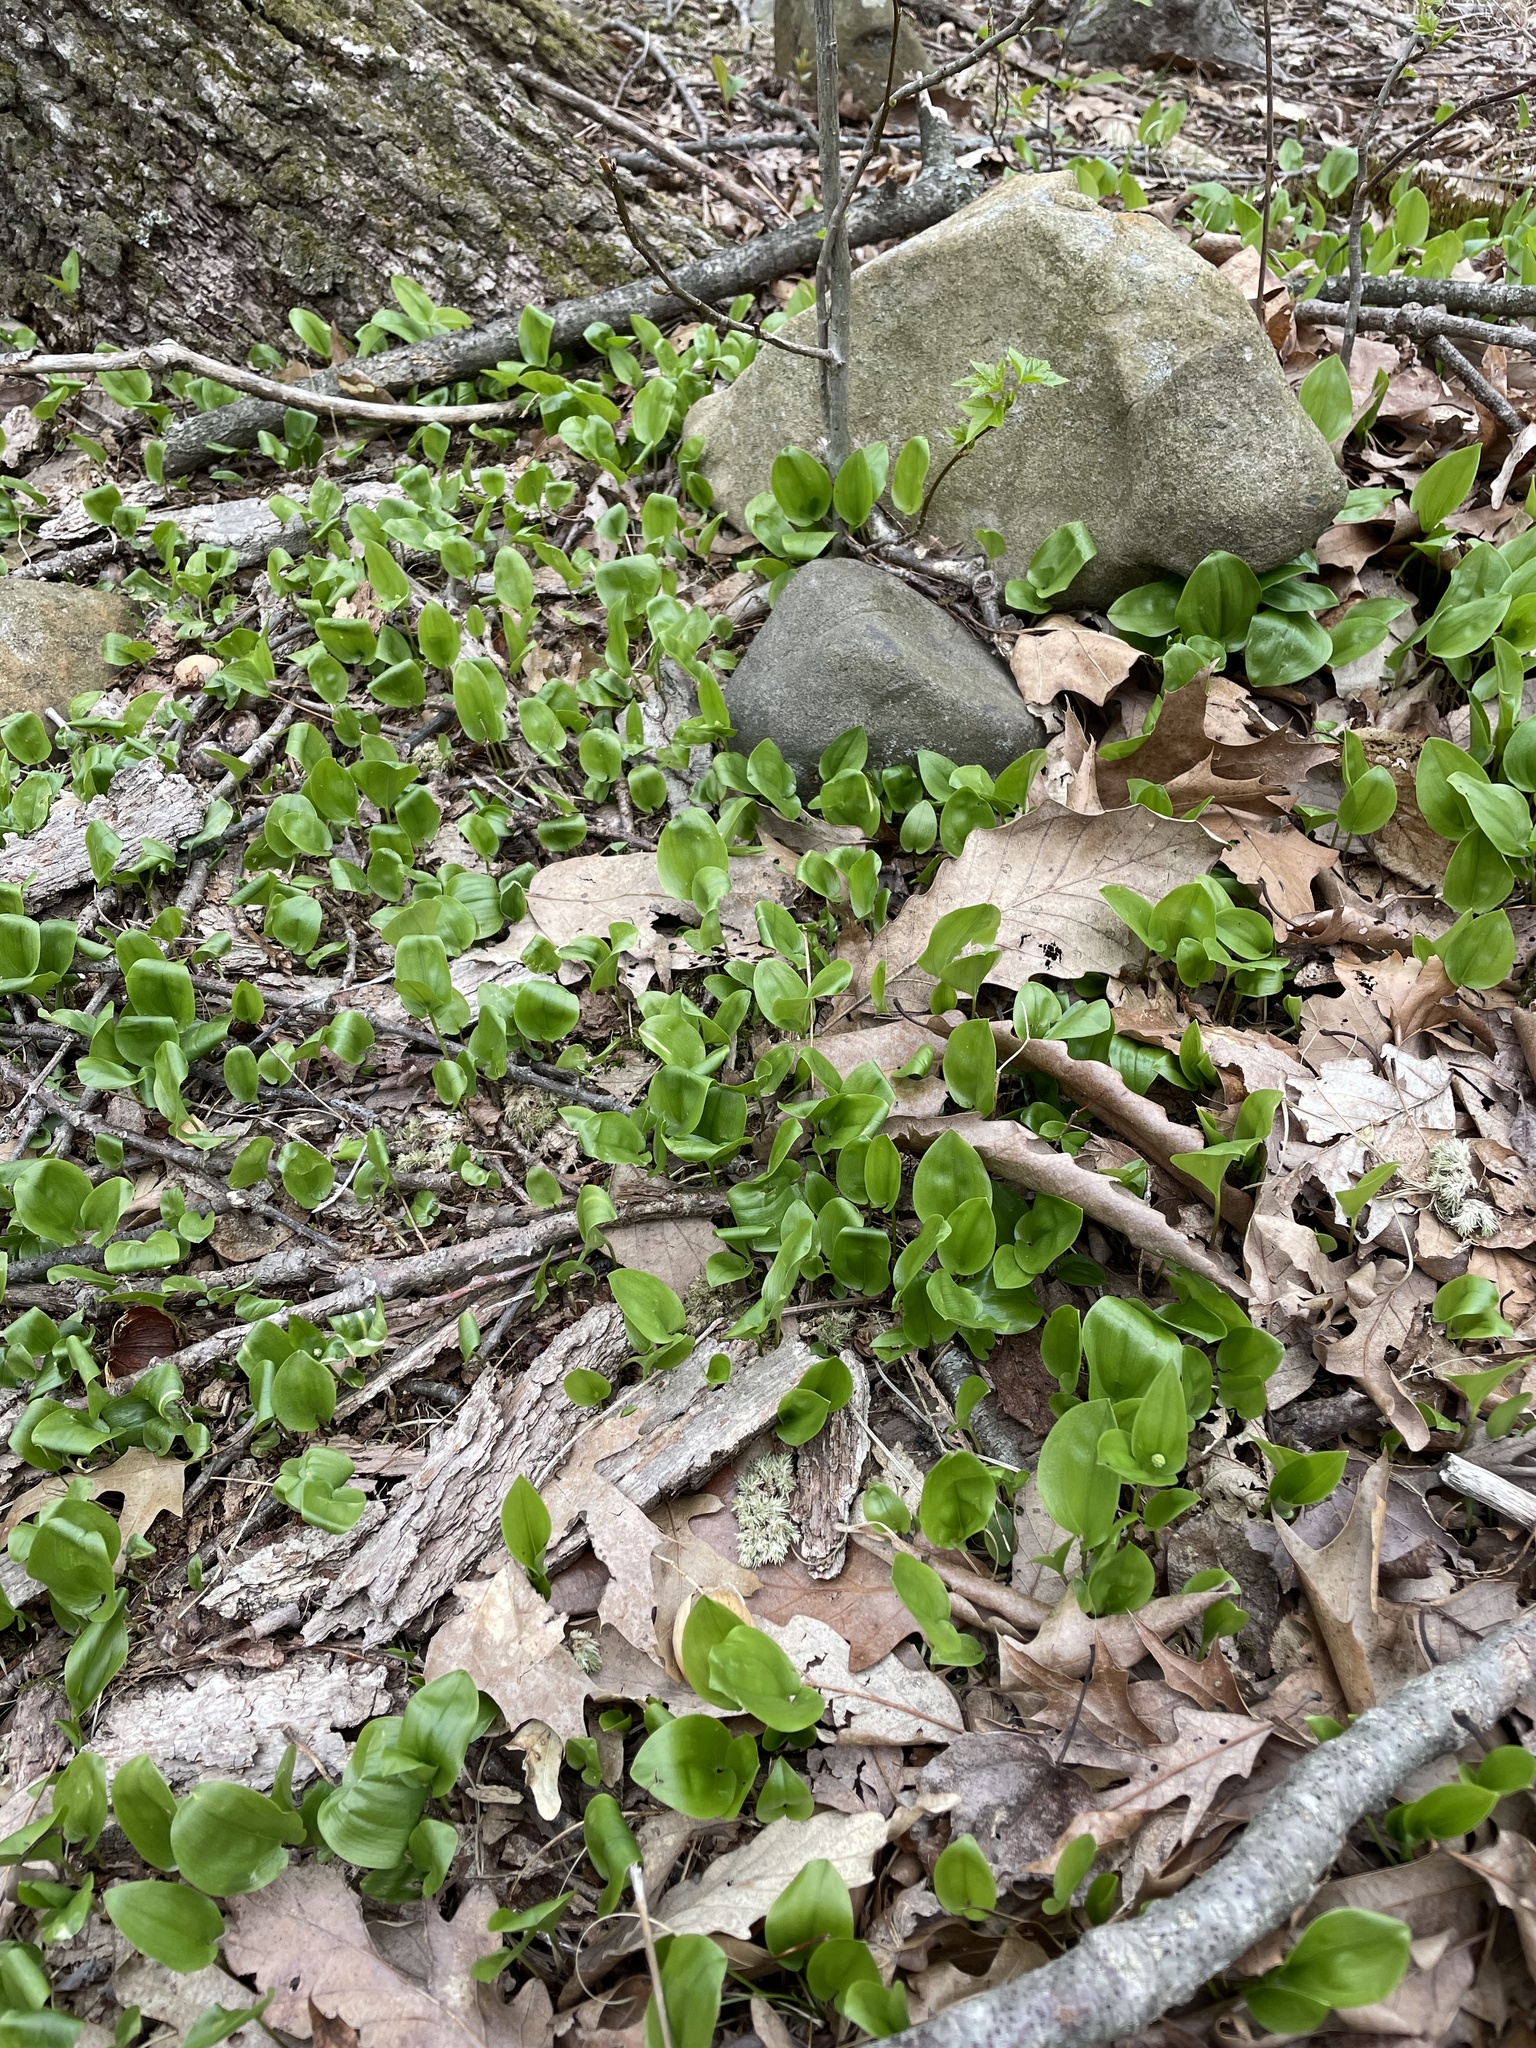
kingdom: Plantae
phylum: Tracheophyta
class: Liliopsida
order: Asparagales
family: Asparagaceae
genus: Maianthemum
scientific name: Maianthemum canadense
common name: False lily-of-the-valley
